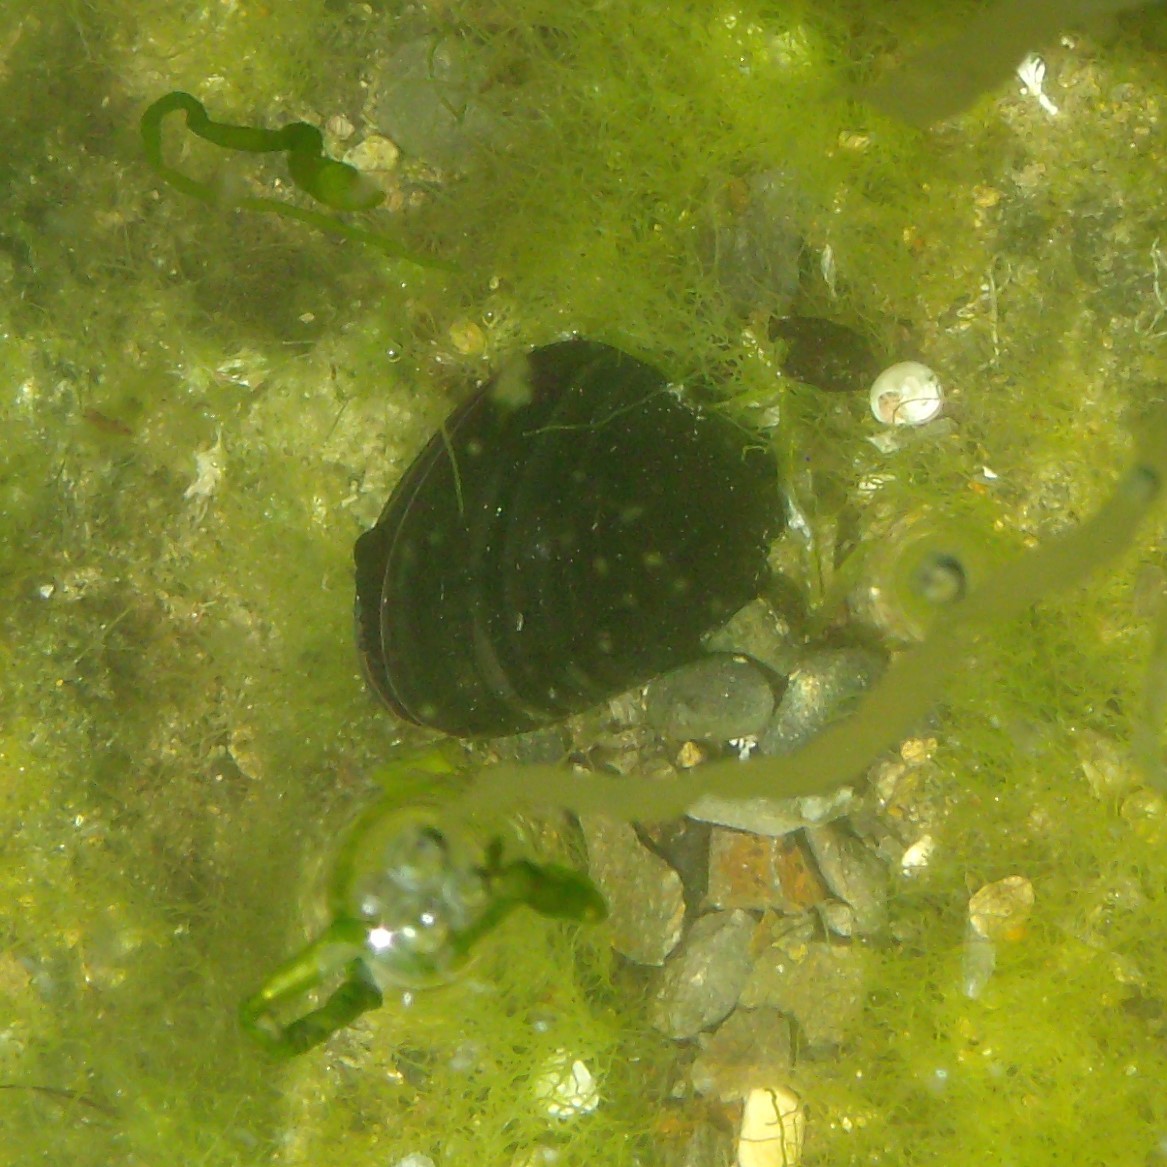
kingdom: Animalia
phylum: Mollusca
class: Bivalvia
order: Mytilida
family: Mytilidae
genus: Perna
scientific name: Perna canaliculus
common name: New zealand greenshelltm
